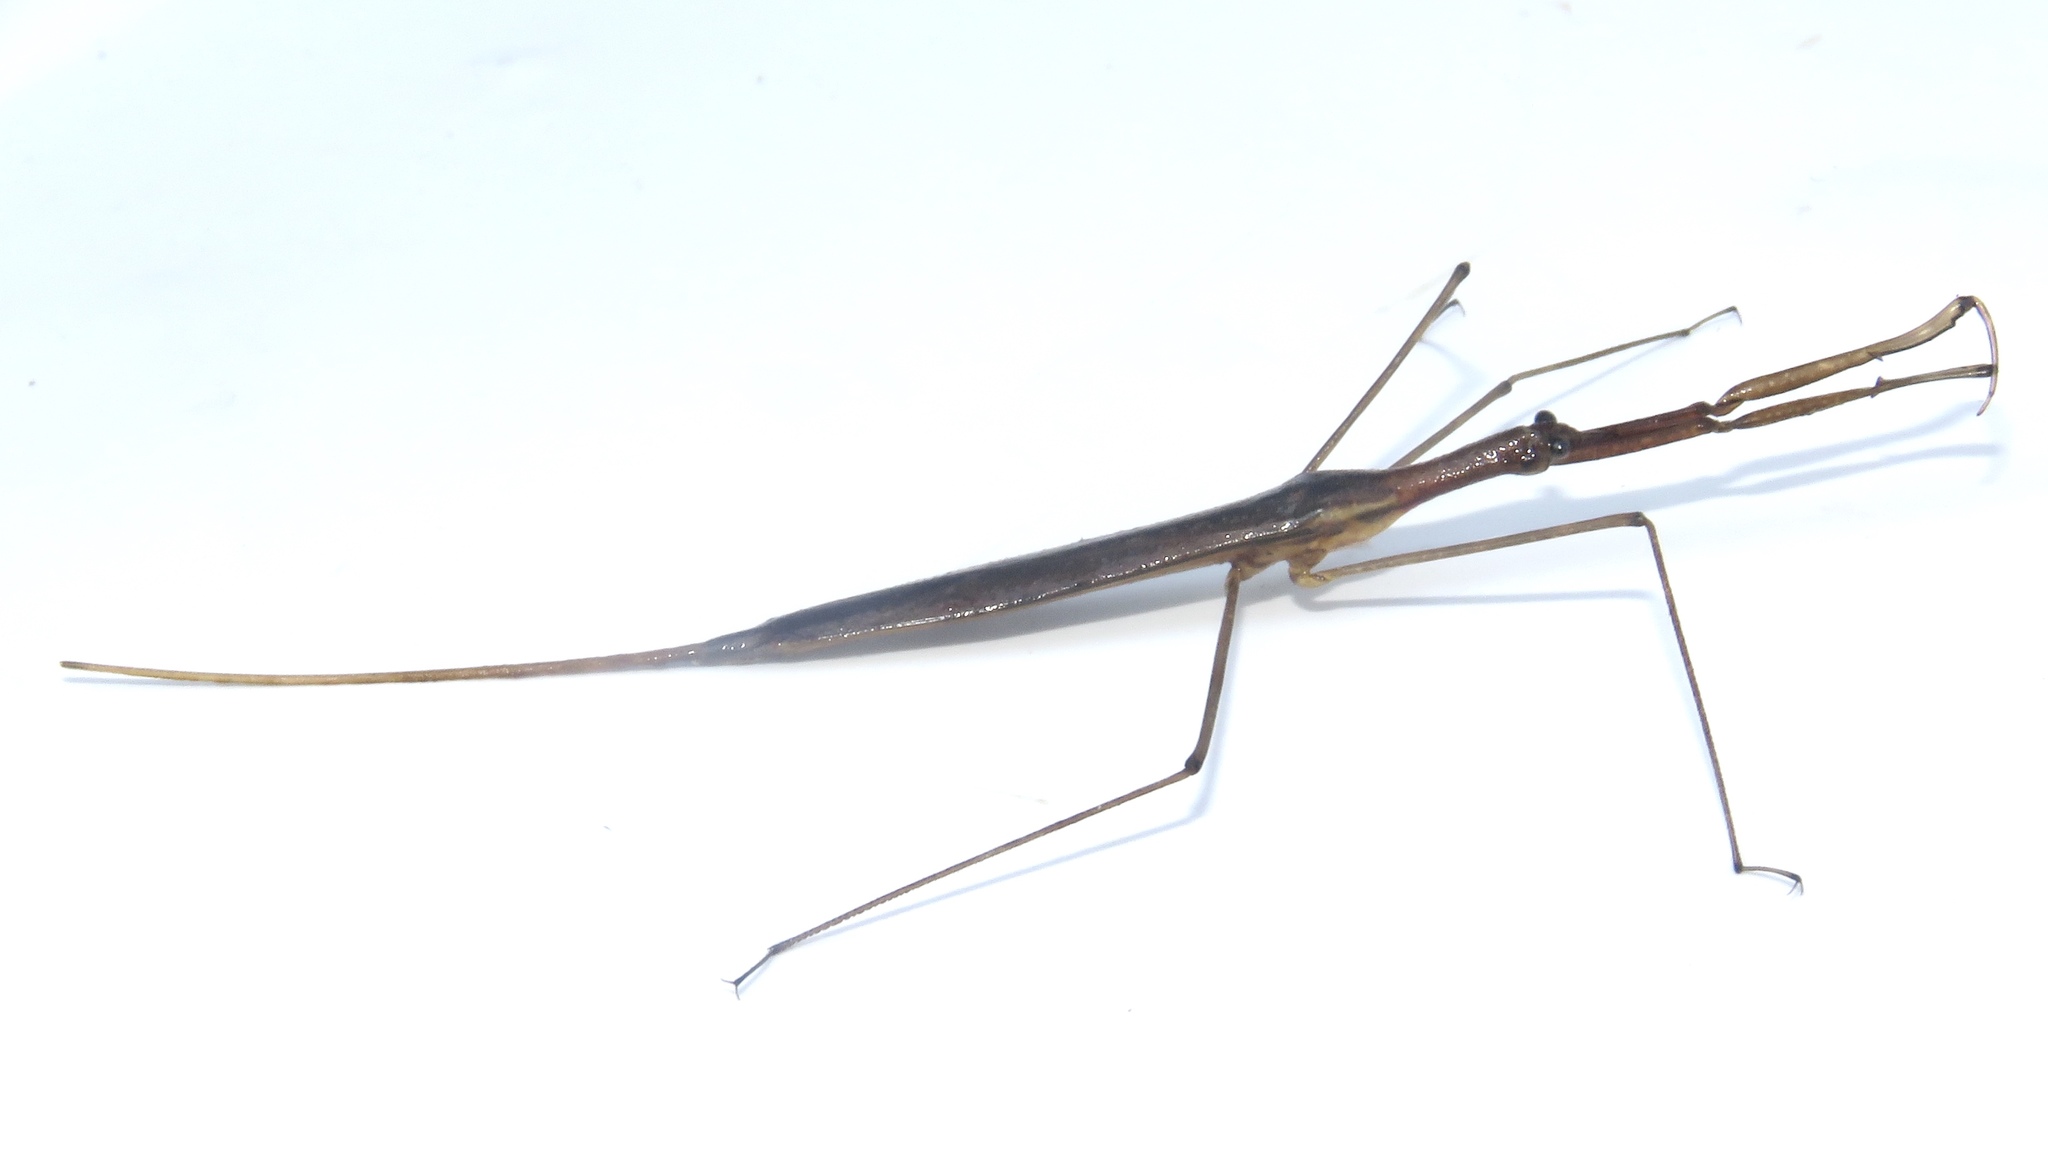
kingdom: Animalia
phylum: Arthropoda
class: Insecta
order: Hemiptera
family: Nepidae
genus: Ranatra
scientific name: Ranatra fusca
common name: Brown waterscorpion
